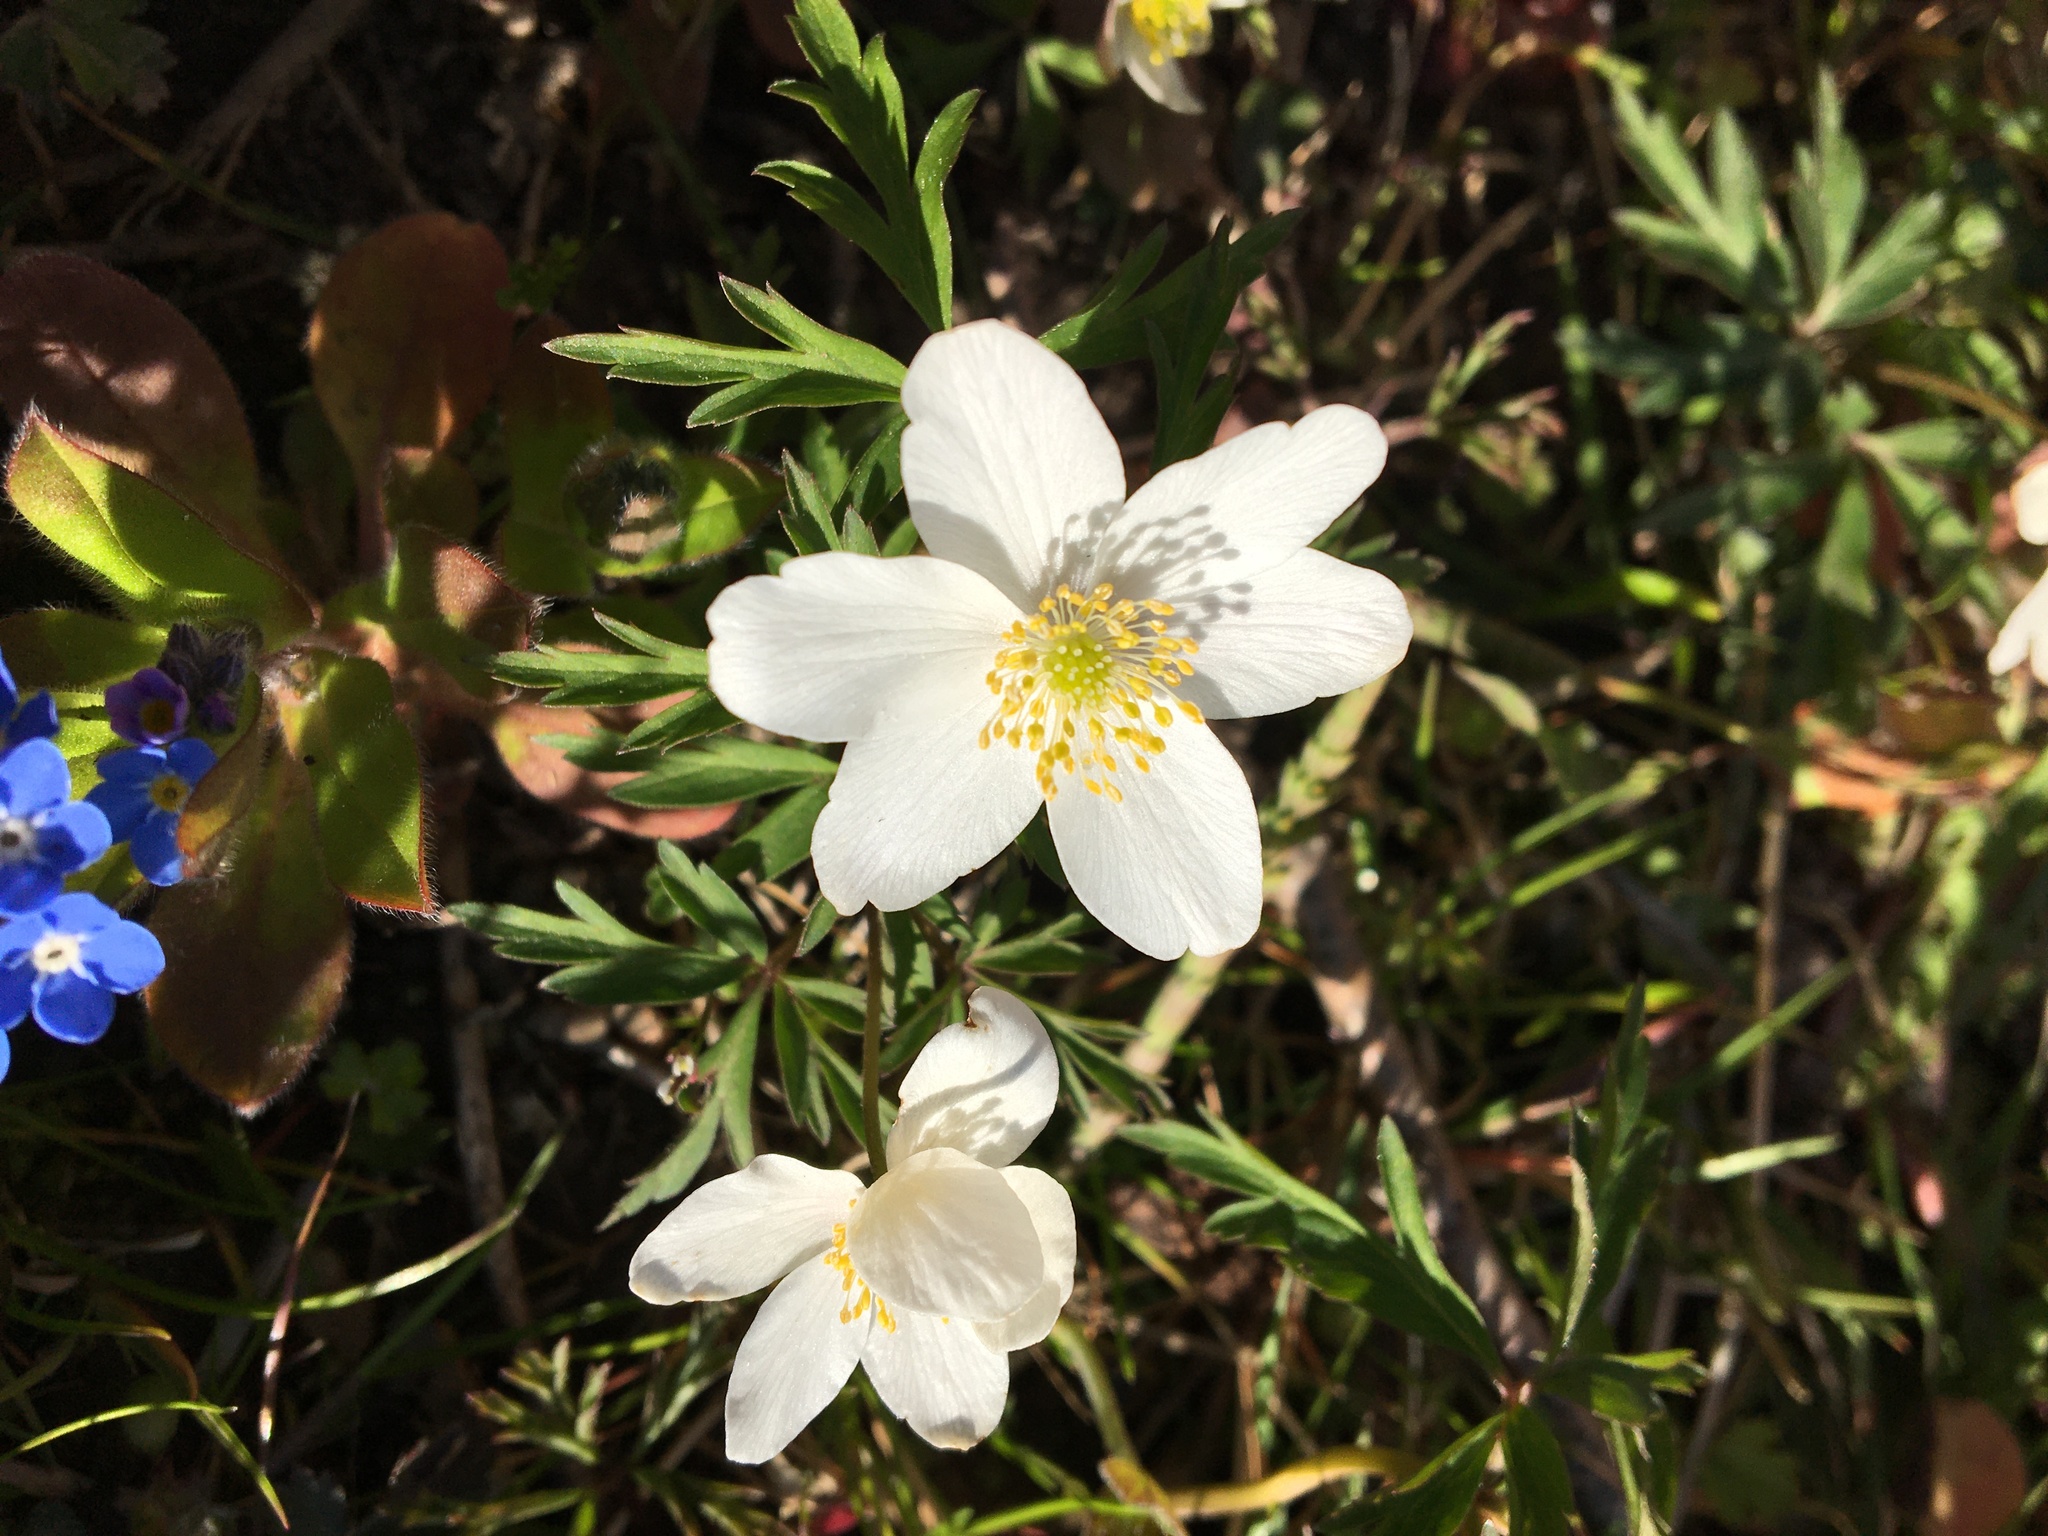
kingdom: Plantae
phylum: Tracheophyta
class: Magnoliopsida
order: Ranunculales
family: Ranunculaceae
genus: Anemone
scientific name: Anemone nemorosa
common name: Wood anemone
